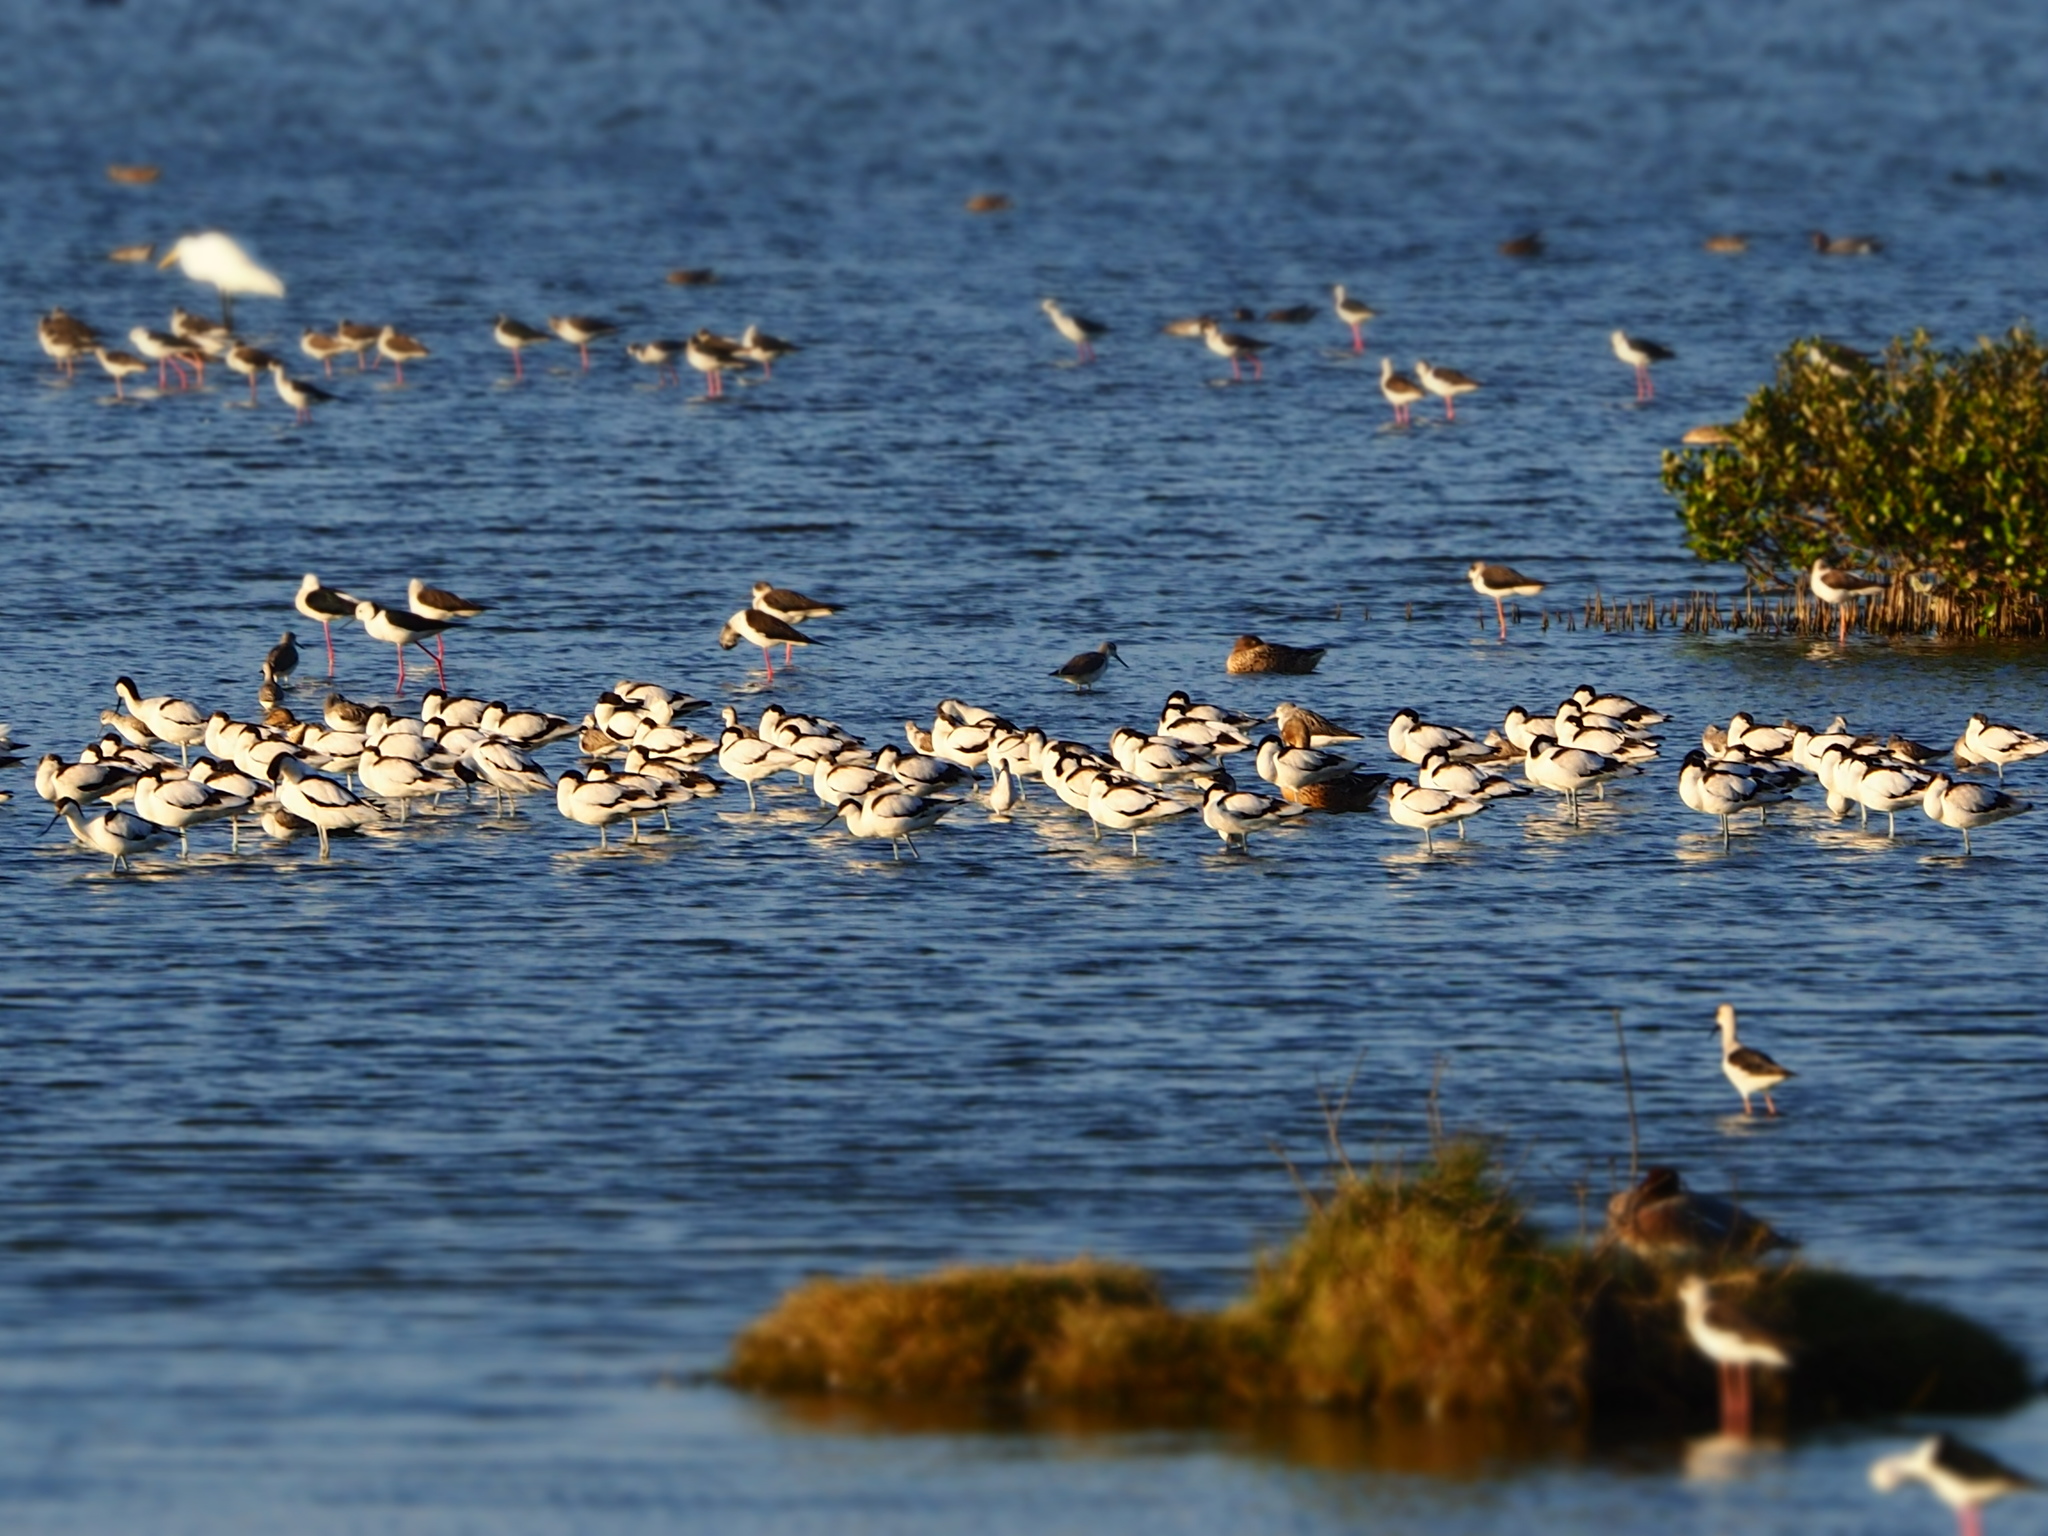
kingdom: Animalia
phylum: Chordata
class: Aves
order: Charadriiformes
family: Recurvirostridae
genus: Recurvirostra
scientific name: Recurvirostra avosetta
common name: Pied avocet
